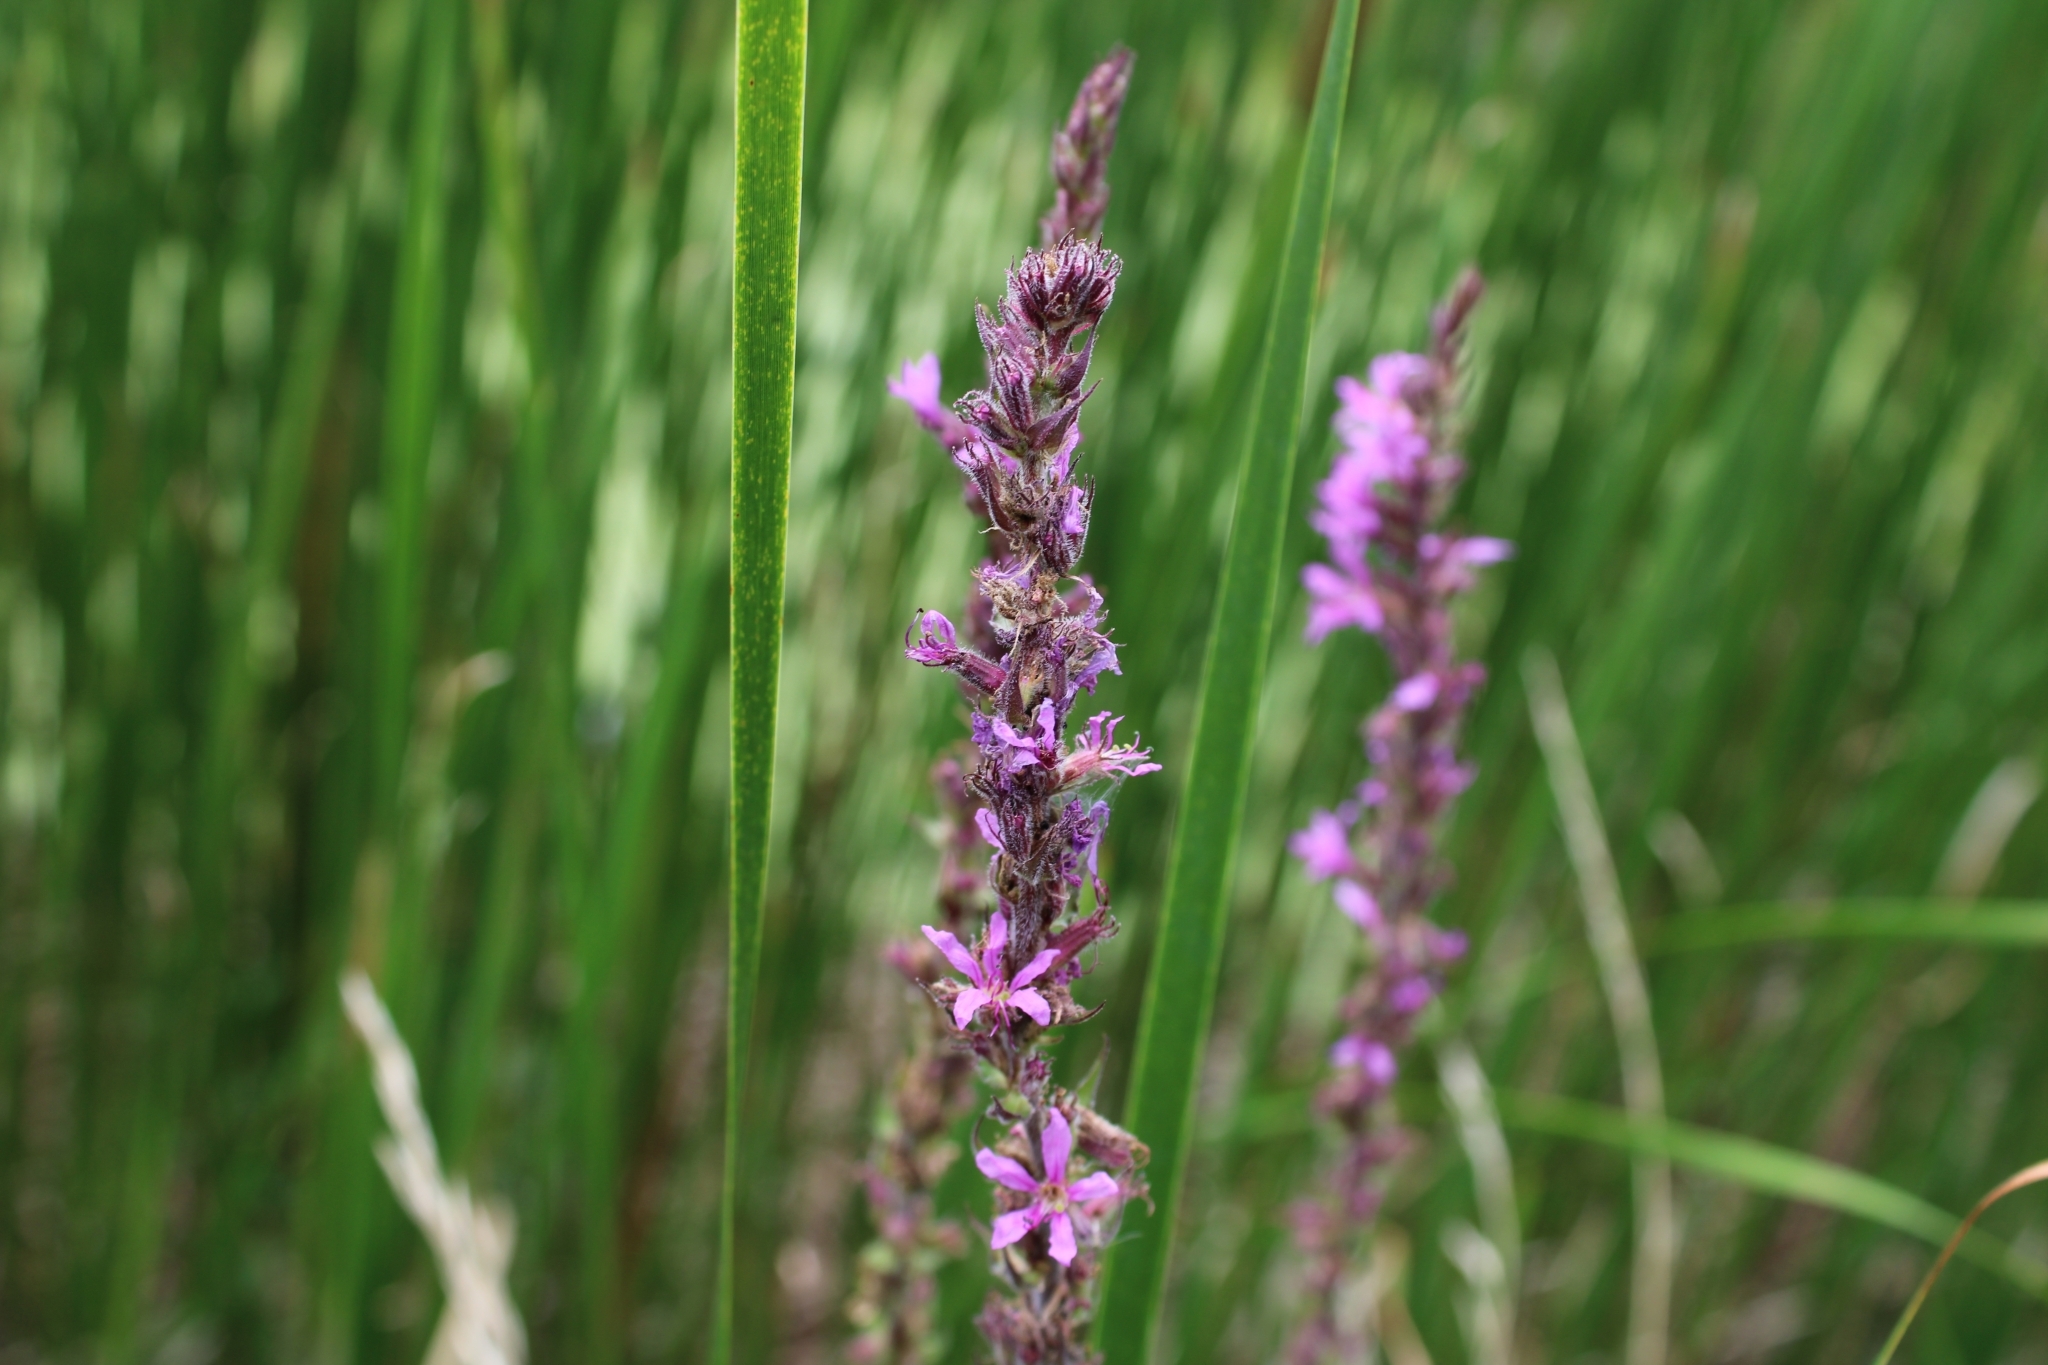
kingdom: Plantae
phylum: Tracheophyta
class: Magnoliopsida
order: Myrtales
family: Lythraceae
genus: Lythrum
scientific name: Lythrum salicaria
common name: Purple loosestrife
